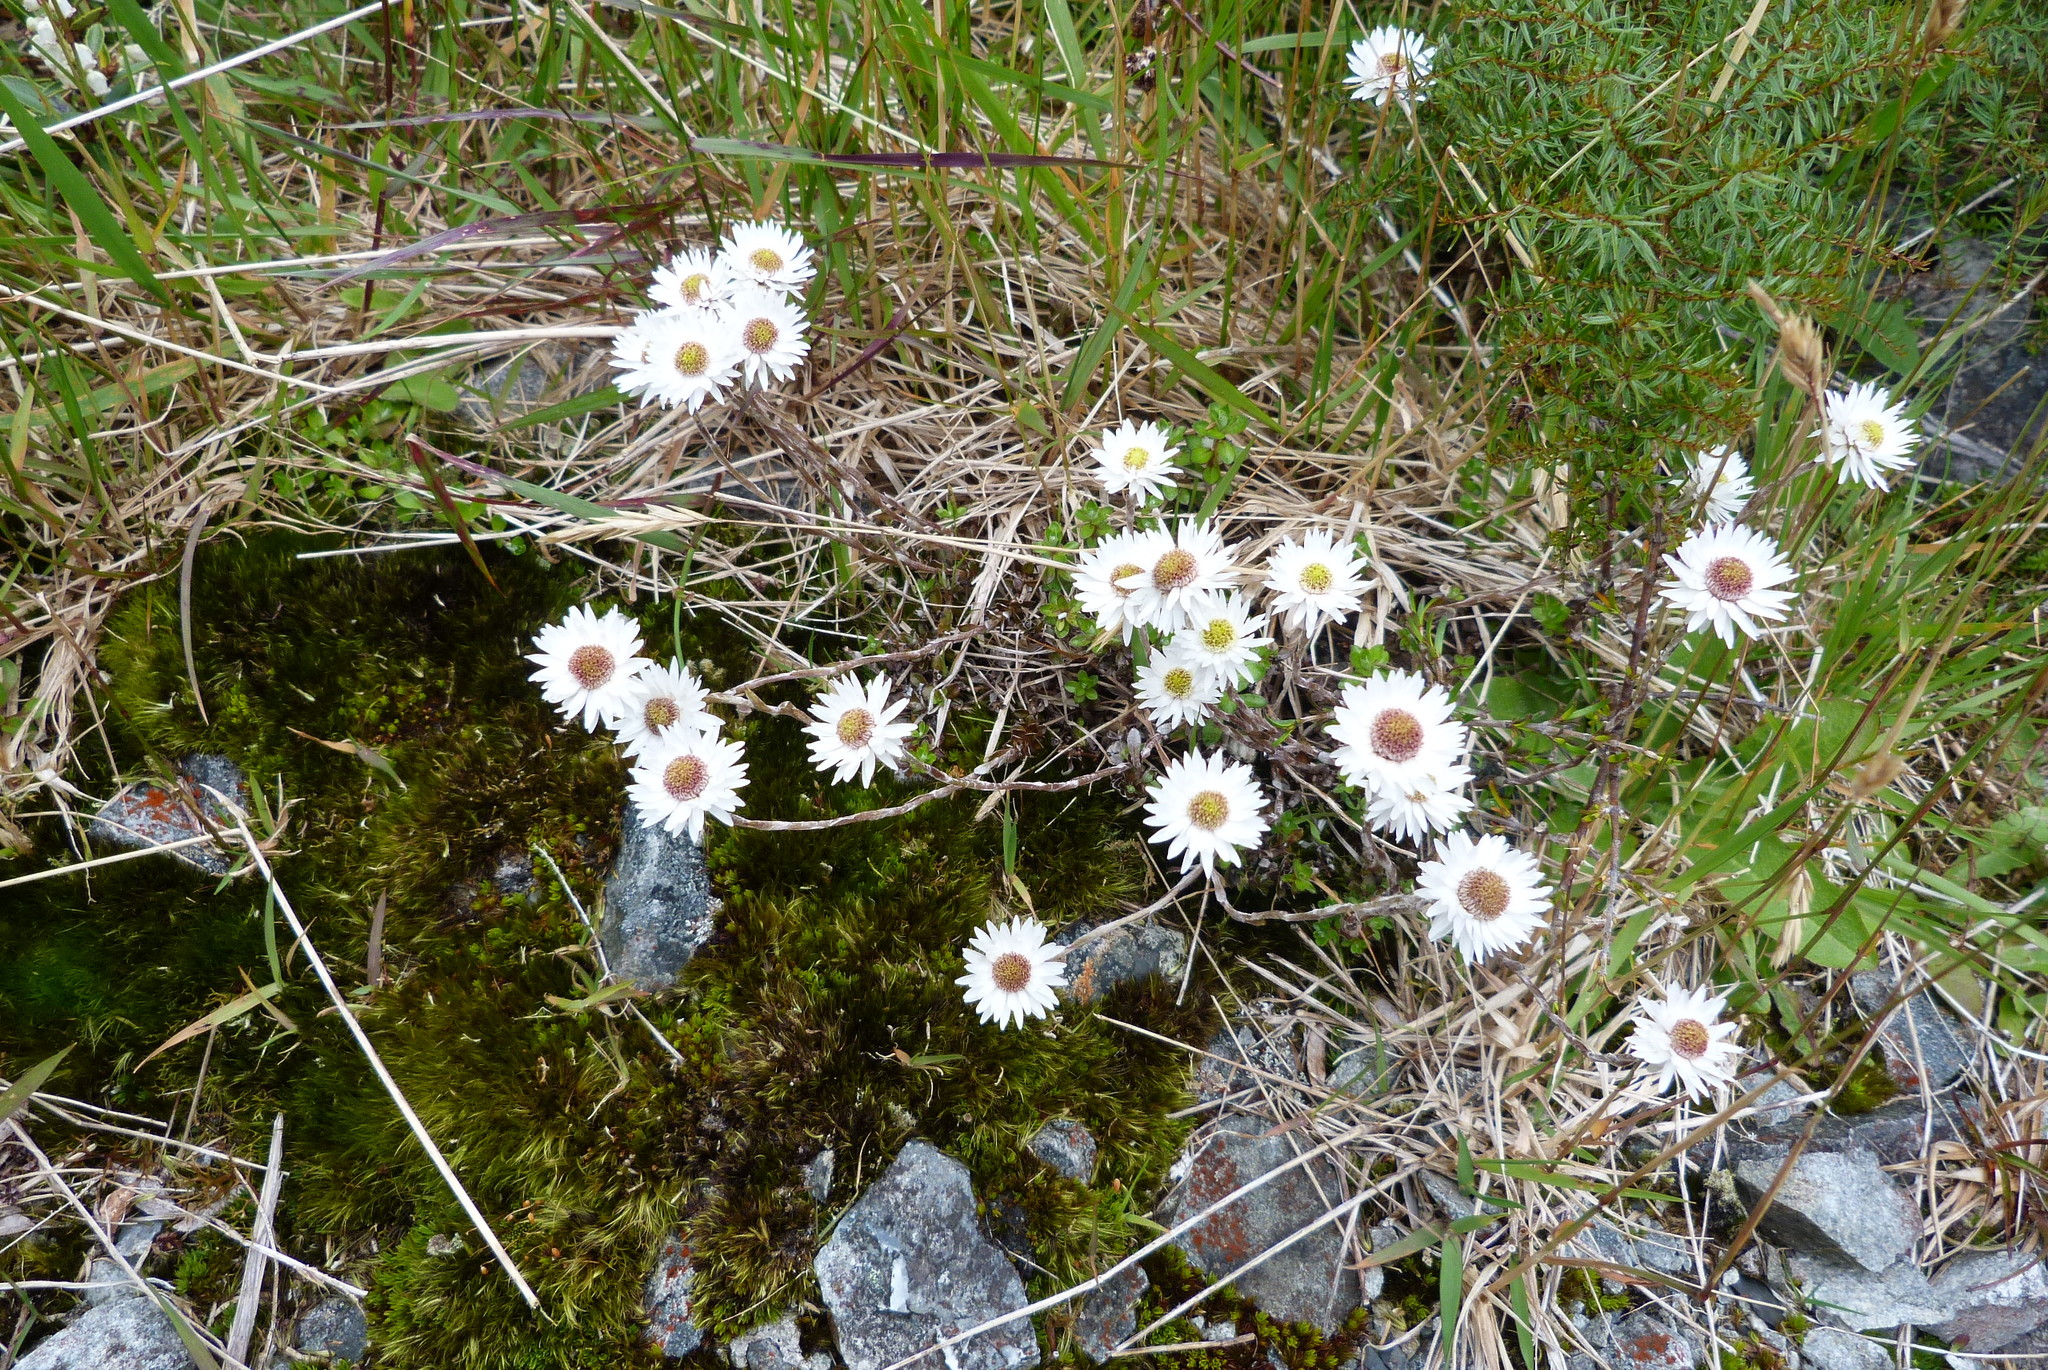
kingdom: Plantae
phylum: Tracheophyta
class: Magnoliopsida
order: Asterales
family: Asteraceae
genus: Anaphalioides
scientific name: Anaphalioides bellidioides
